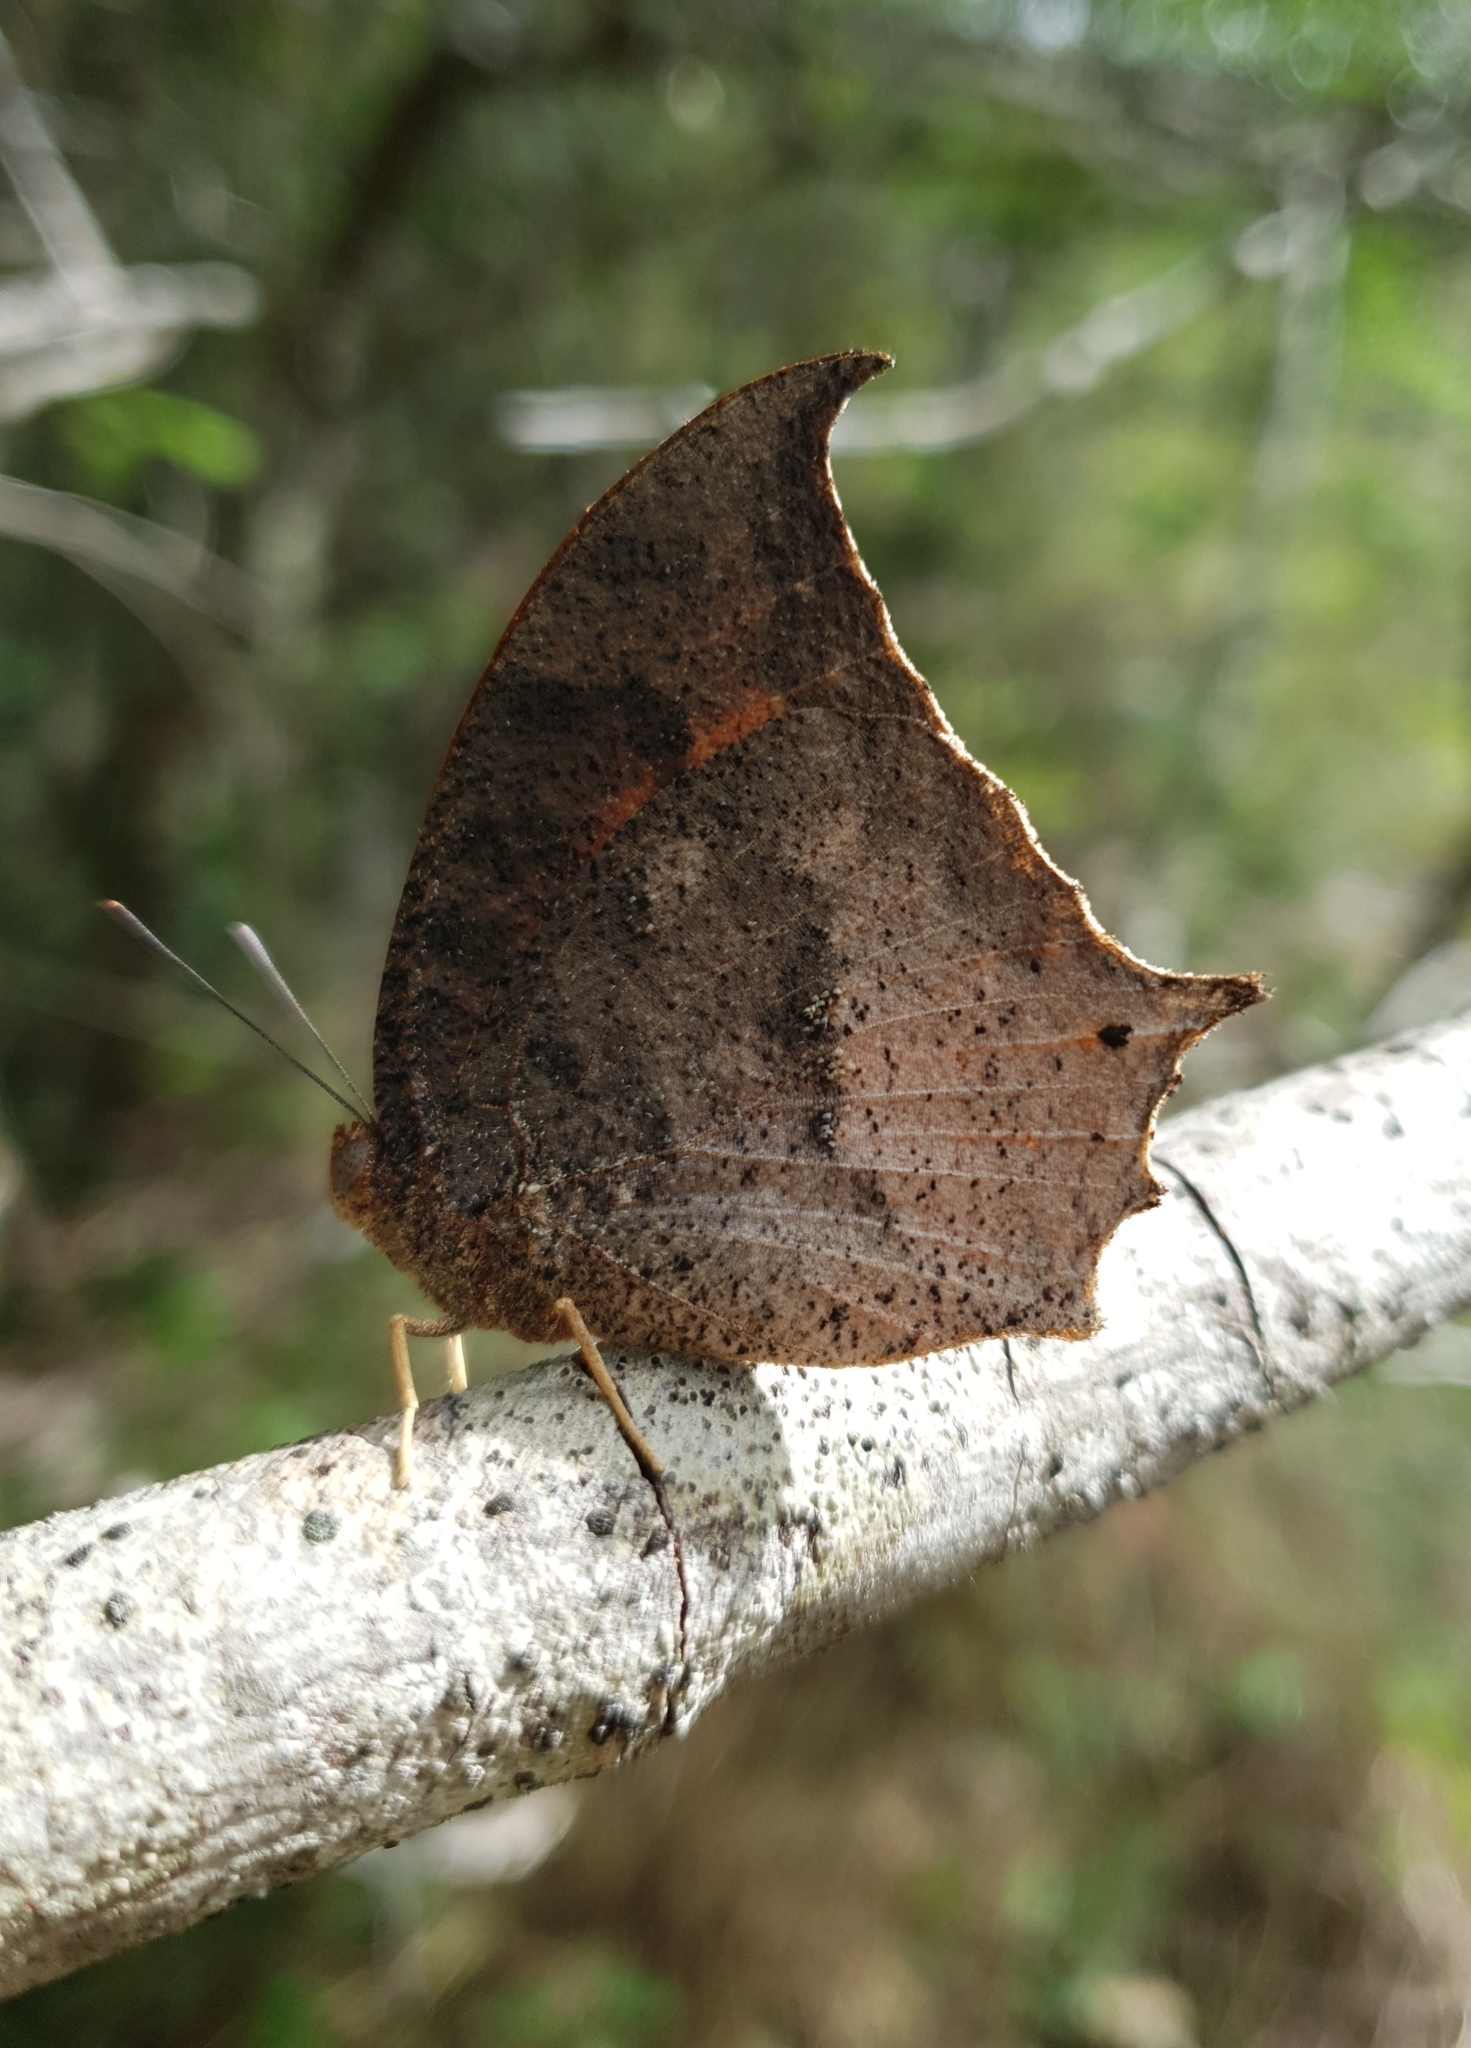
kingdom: Animalia
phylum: Arthropoda
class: Insecta
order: Lepidoptera
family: Nymphalidae
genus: Anaea
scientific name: Anaea troglodyta
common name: Florida leafwing
